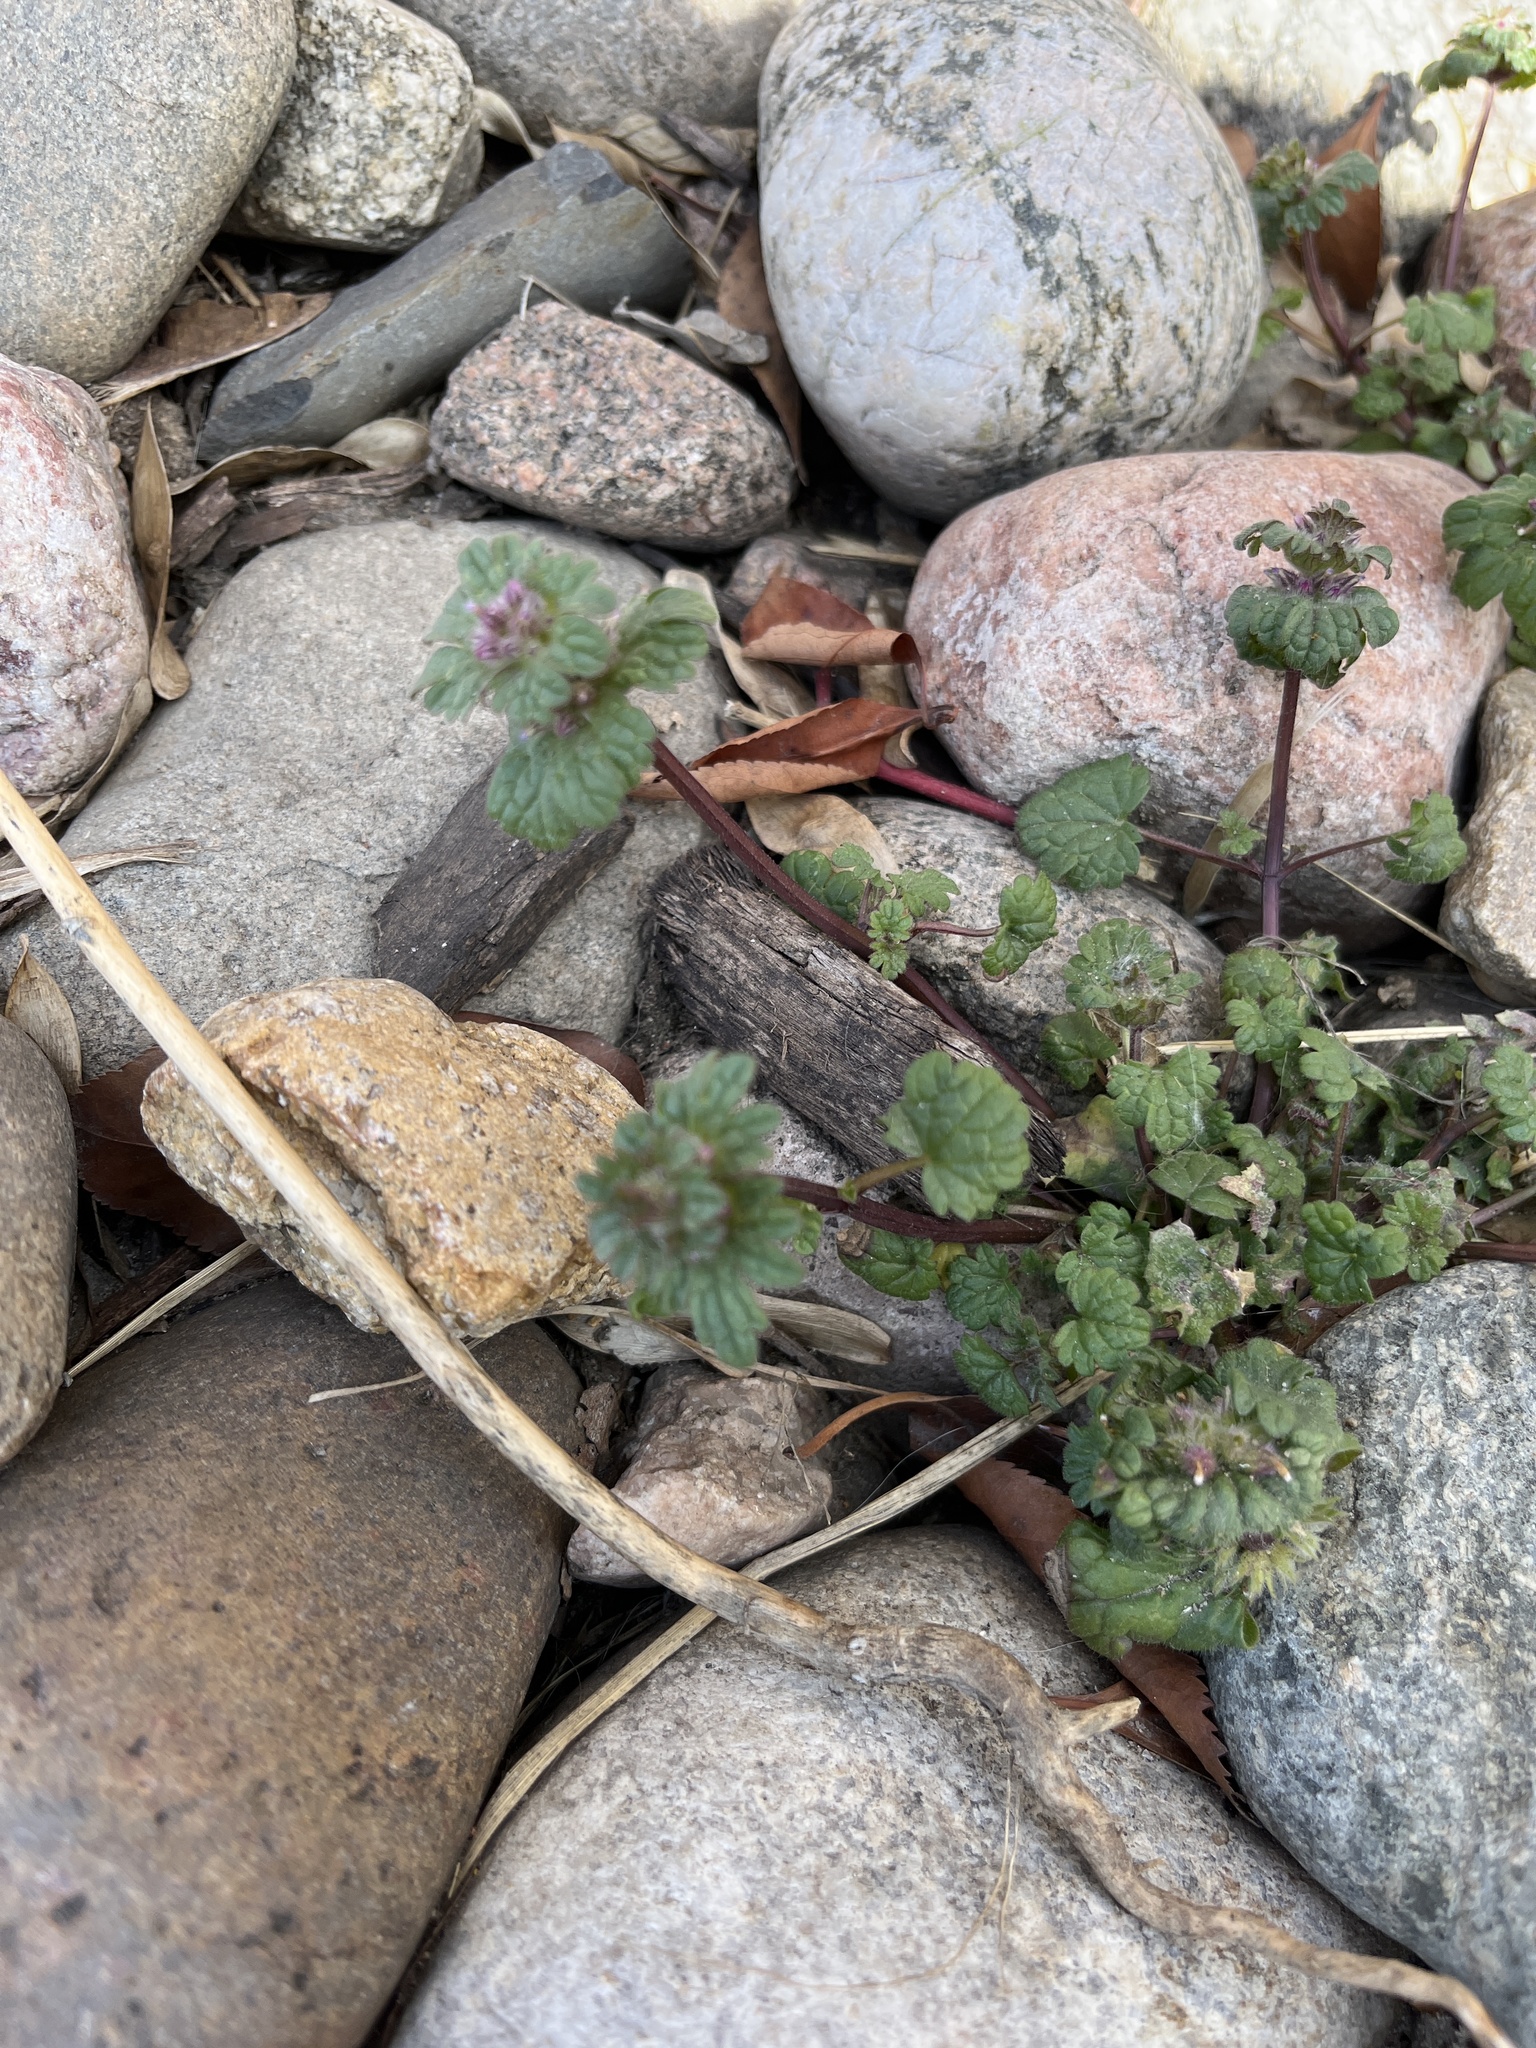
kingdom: Plantae
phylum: Tracheophyta
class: Magnoliopsida
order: Lamiales
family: Lamiaceae
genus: Lamium
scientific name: Lamium amplexicaule
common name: Henbit dead-nettle
